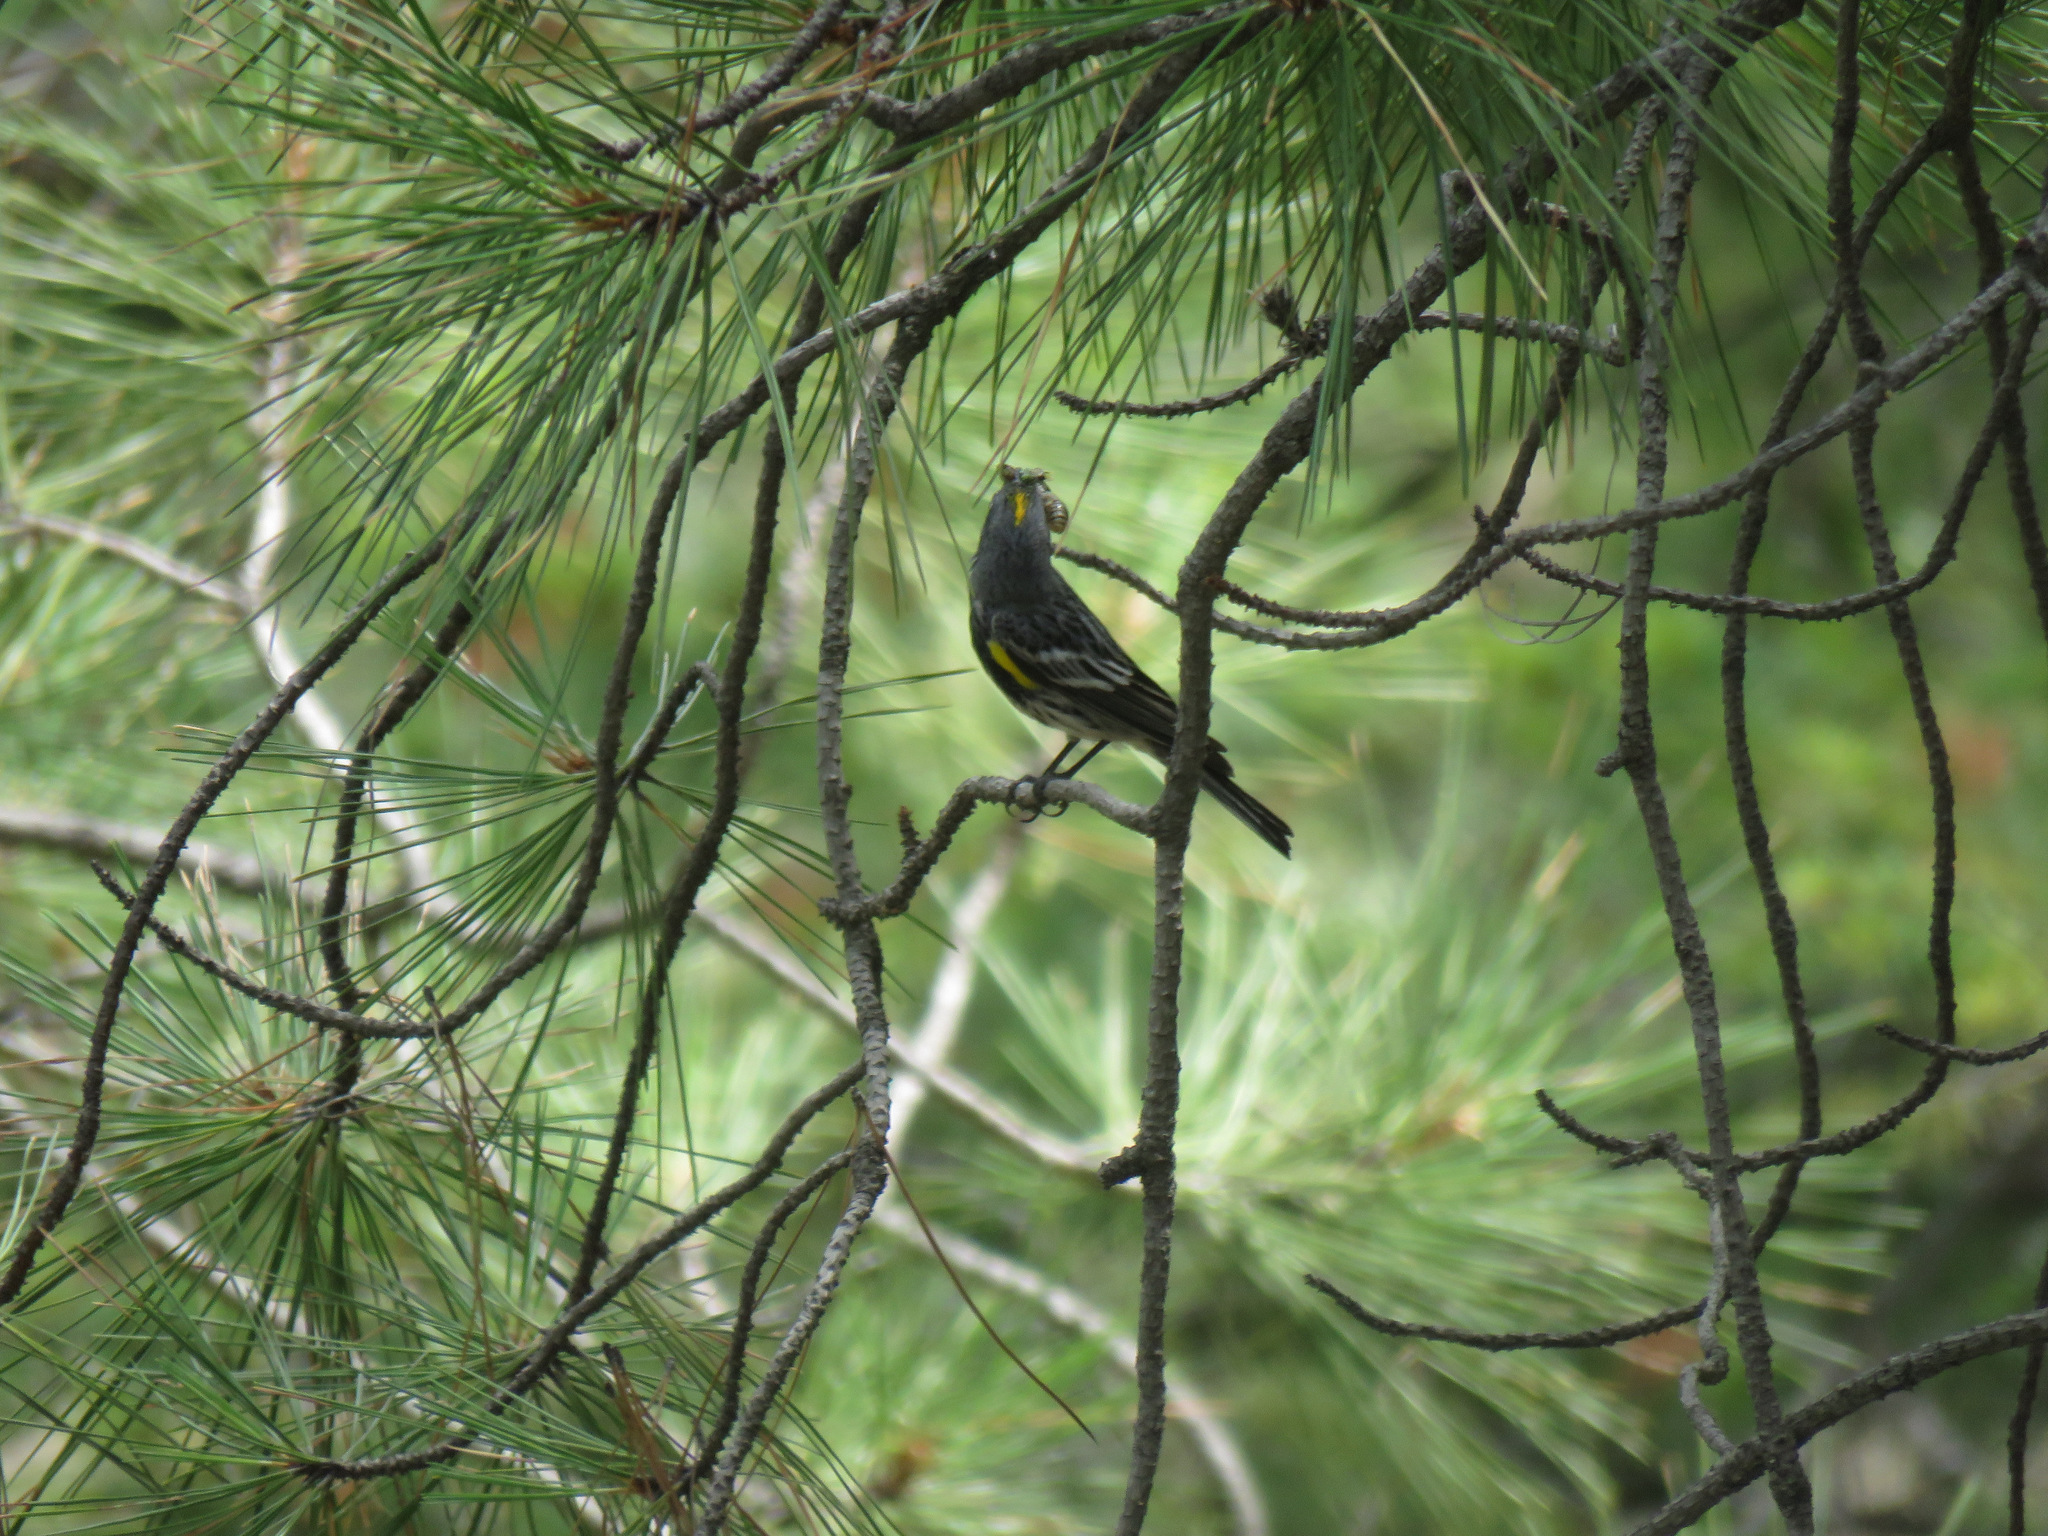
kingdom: Animalia
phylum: Chordata
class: Aves
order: Passeriformes
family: Parulidae
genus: Setophaga
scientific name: Setophaga coronata
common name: Myrtle warbler
